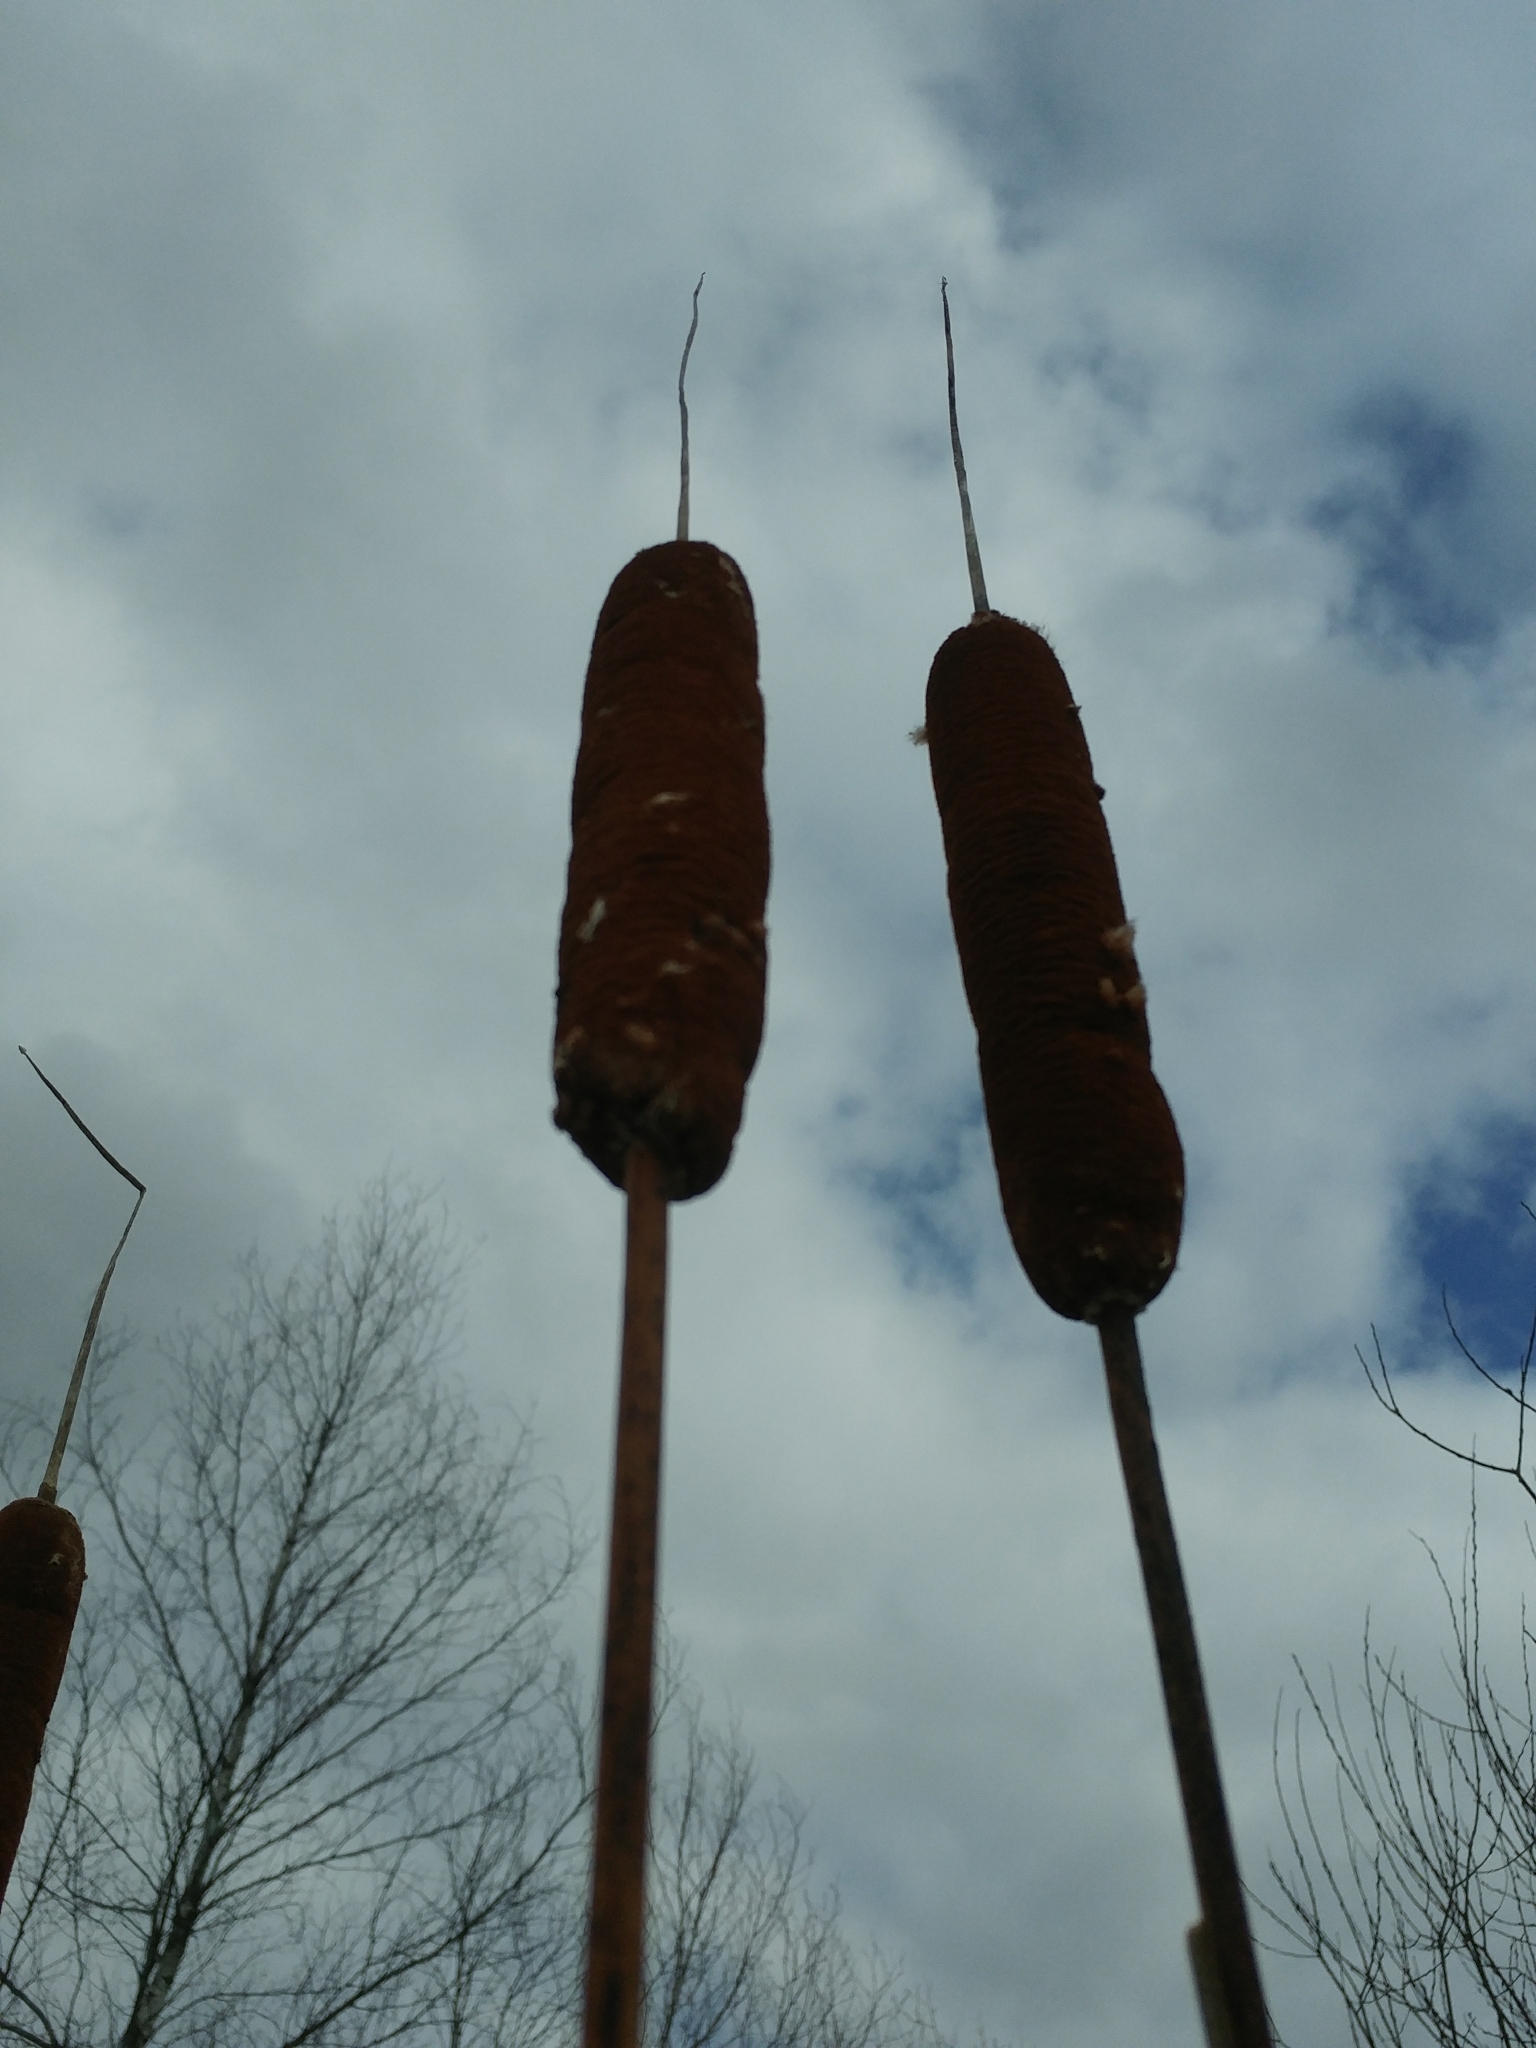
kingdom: Plantae
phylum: Tracheophyta
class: Liliopsida
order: Poales
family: Typhaceae
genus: Typha
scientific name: Typha latifolia
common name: Broadleaf cattail
